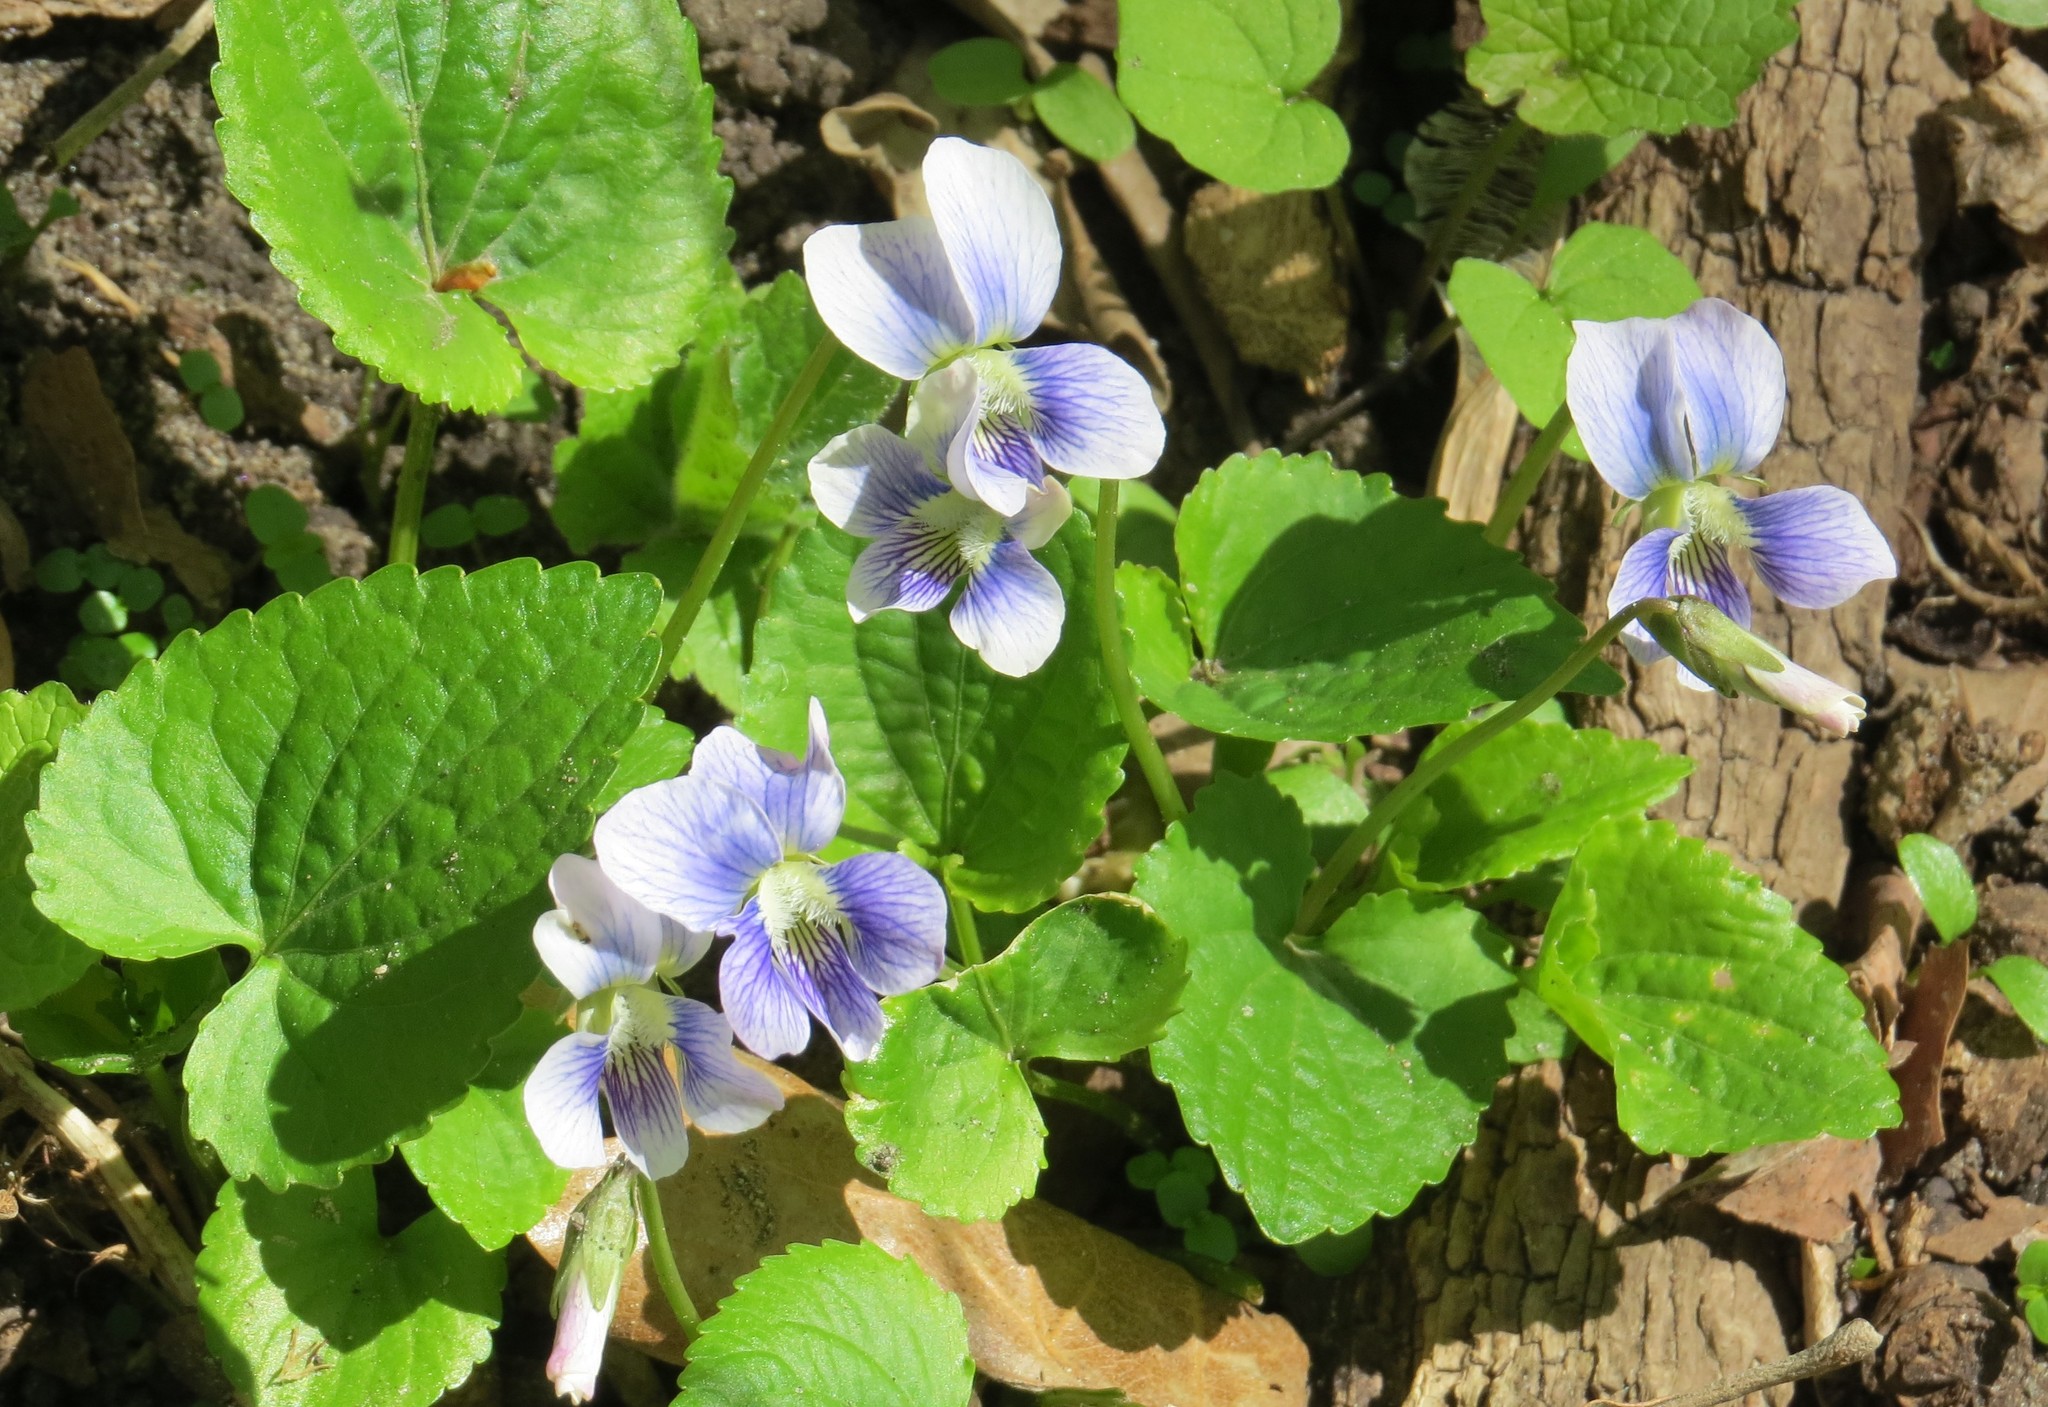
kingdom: Plantae
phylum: Tracheophyta
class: Magnoliopsida
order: Malpighiales
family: Violaceae
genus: Viola
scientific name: Viola sororia
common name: Dooryard violet
